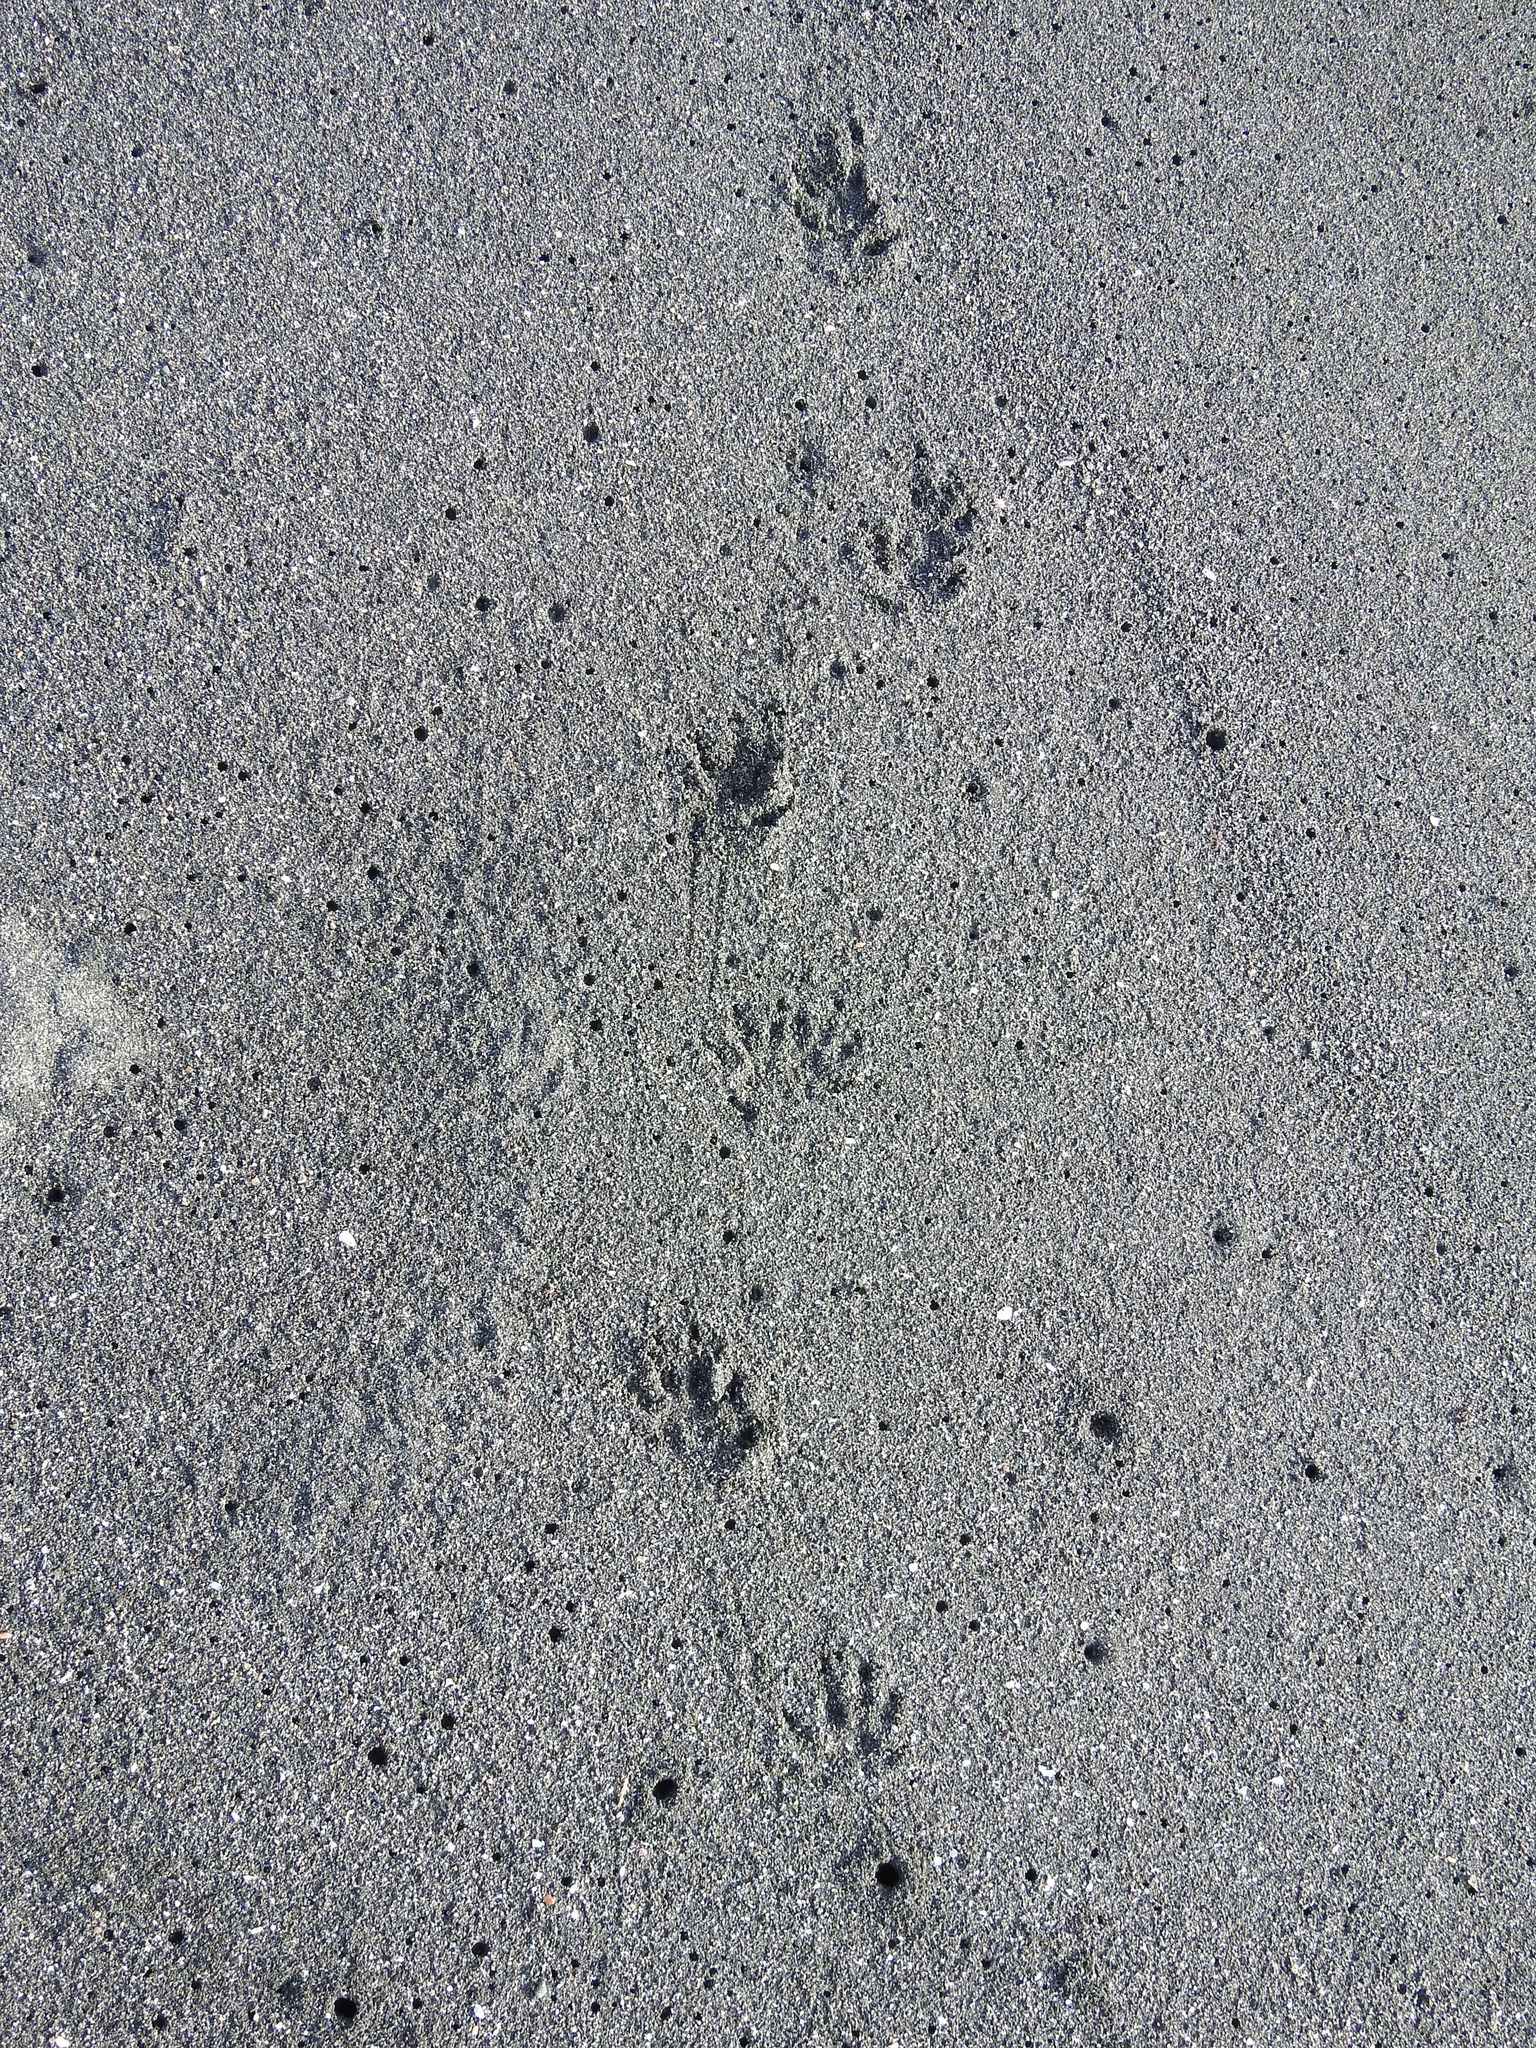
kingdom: Animalia
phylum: Chordata
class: Mammalia
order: Erinaceomorpha
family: Erinaceidae
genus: Erinaceus
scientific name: Erinaceus europaeus
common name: West european hedgehog
